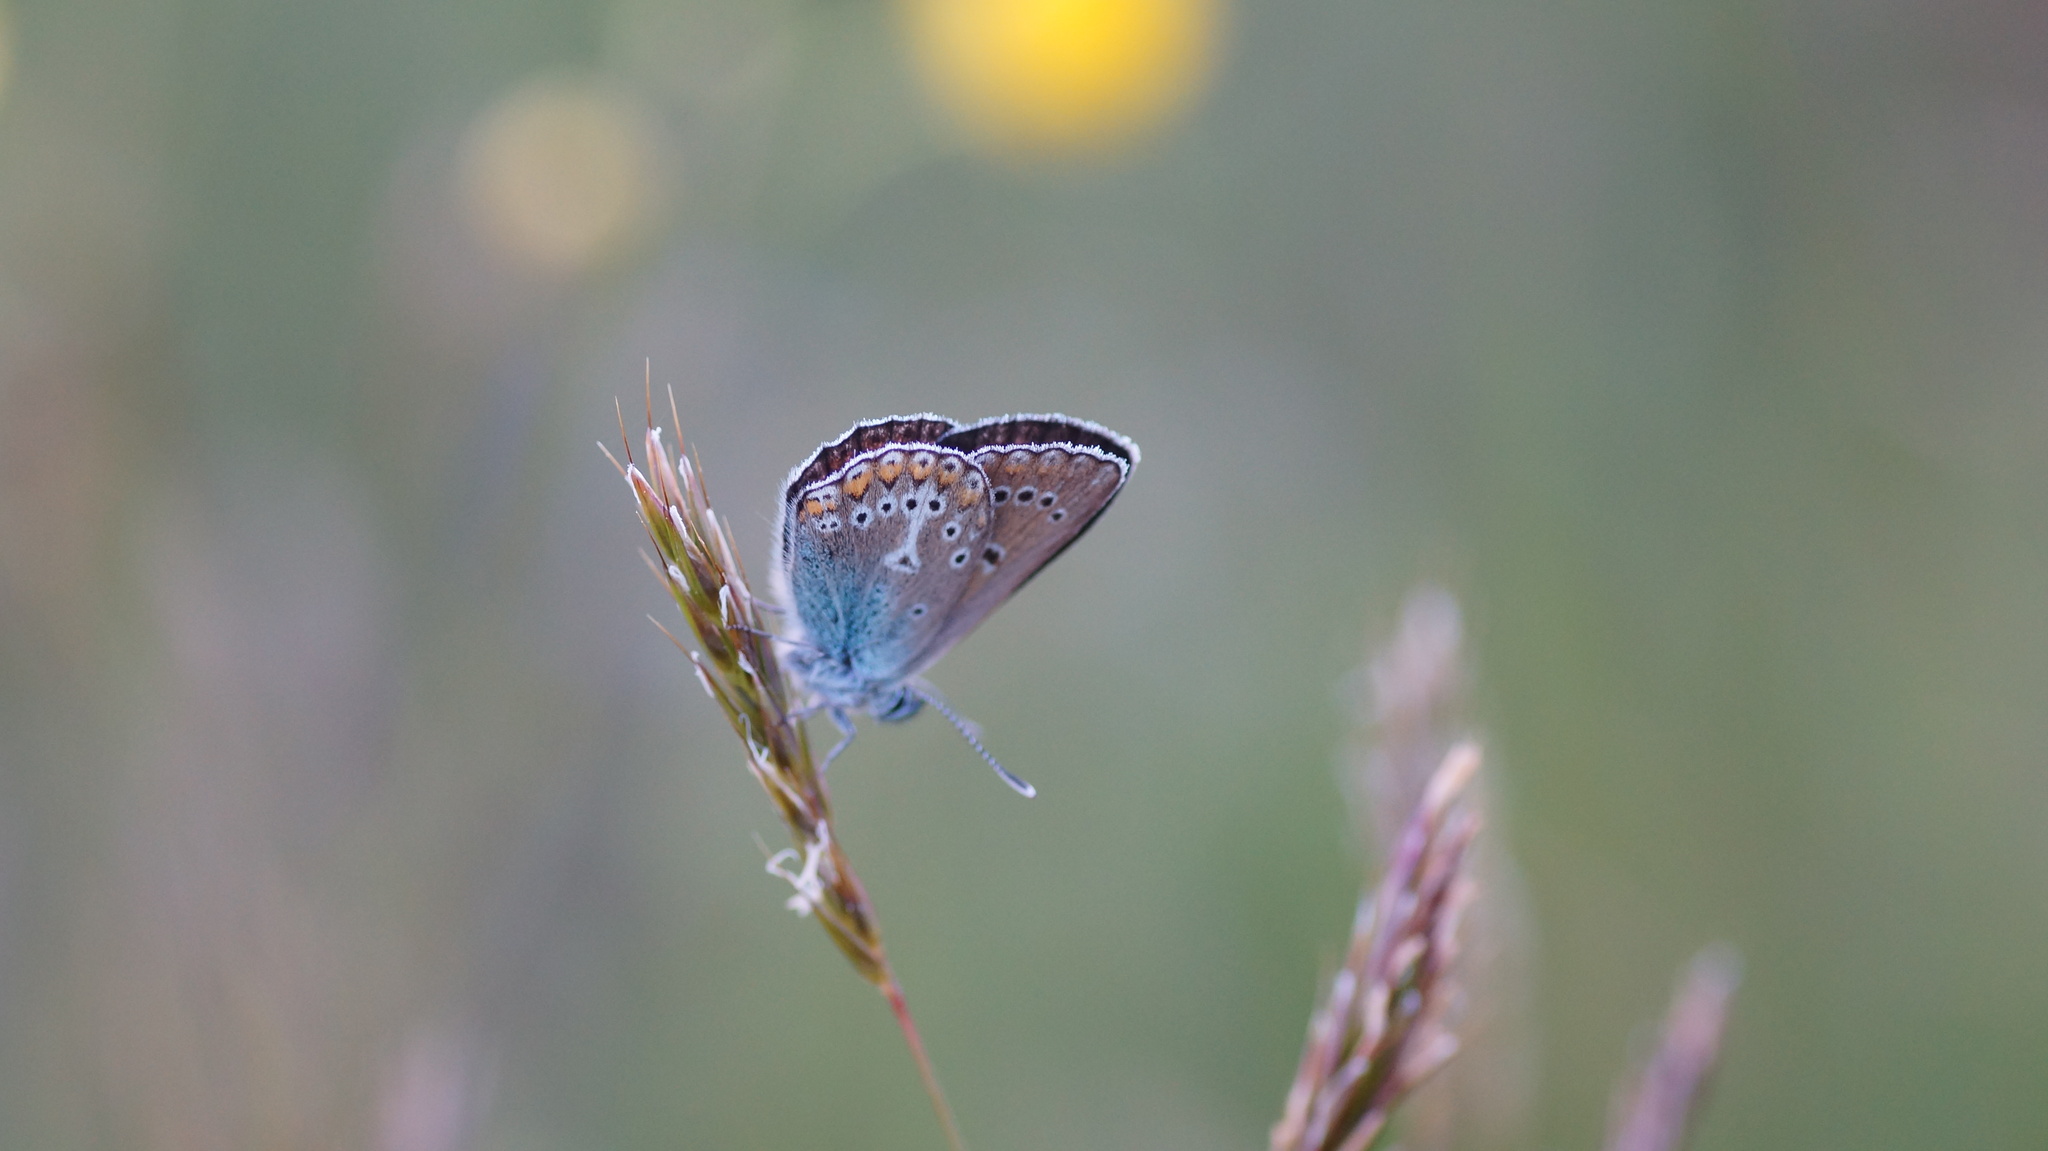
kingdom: Animalia
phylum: Arthropoda
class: Insecta
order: Lepidoptera
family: Lycaenidae
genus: Eumedonia
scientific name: Eumedonia eumedon
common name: Geranium argus
